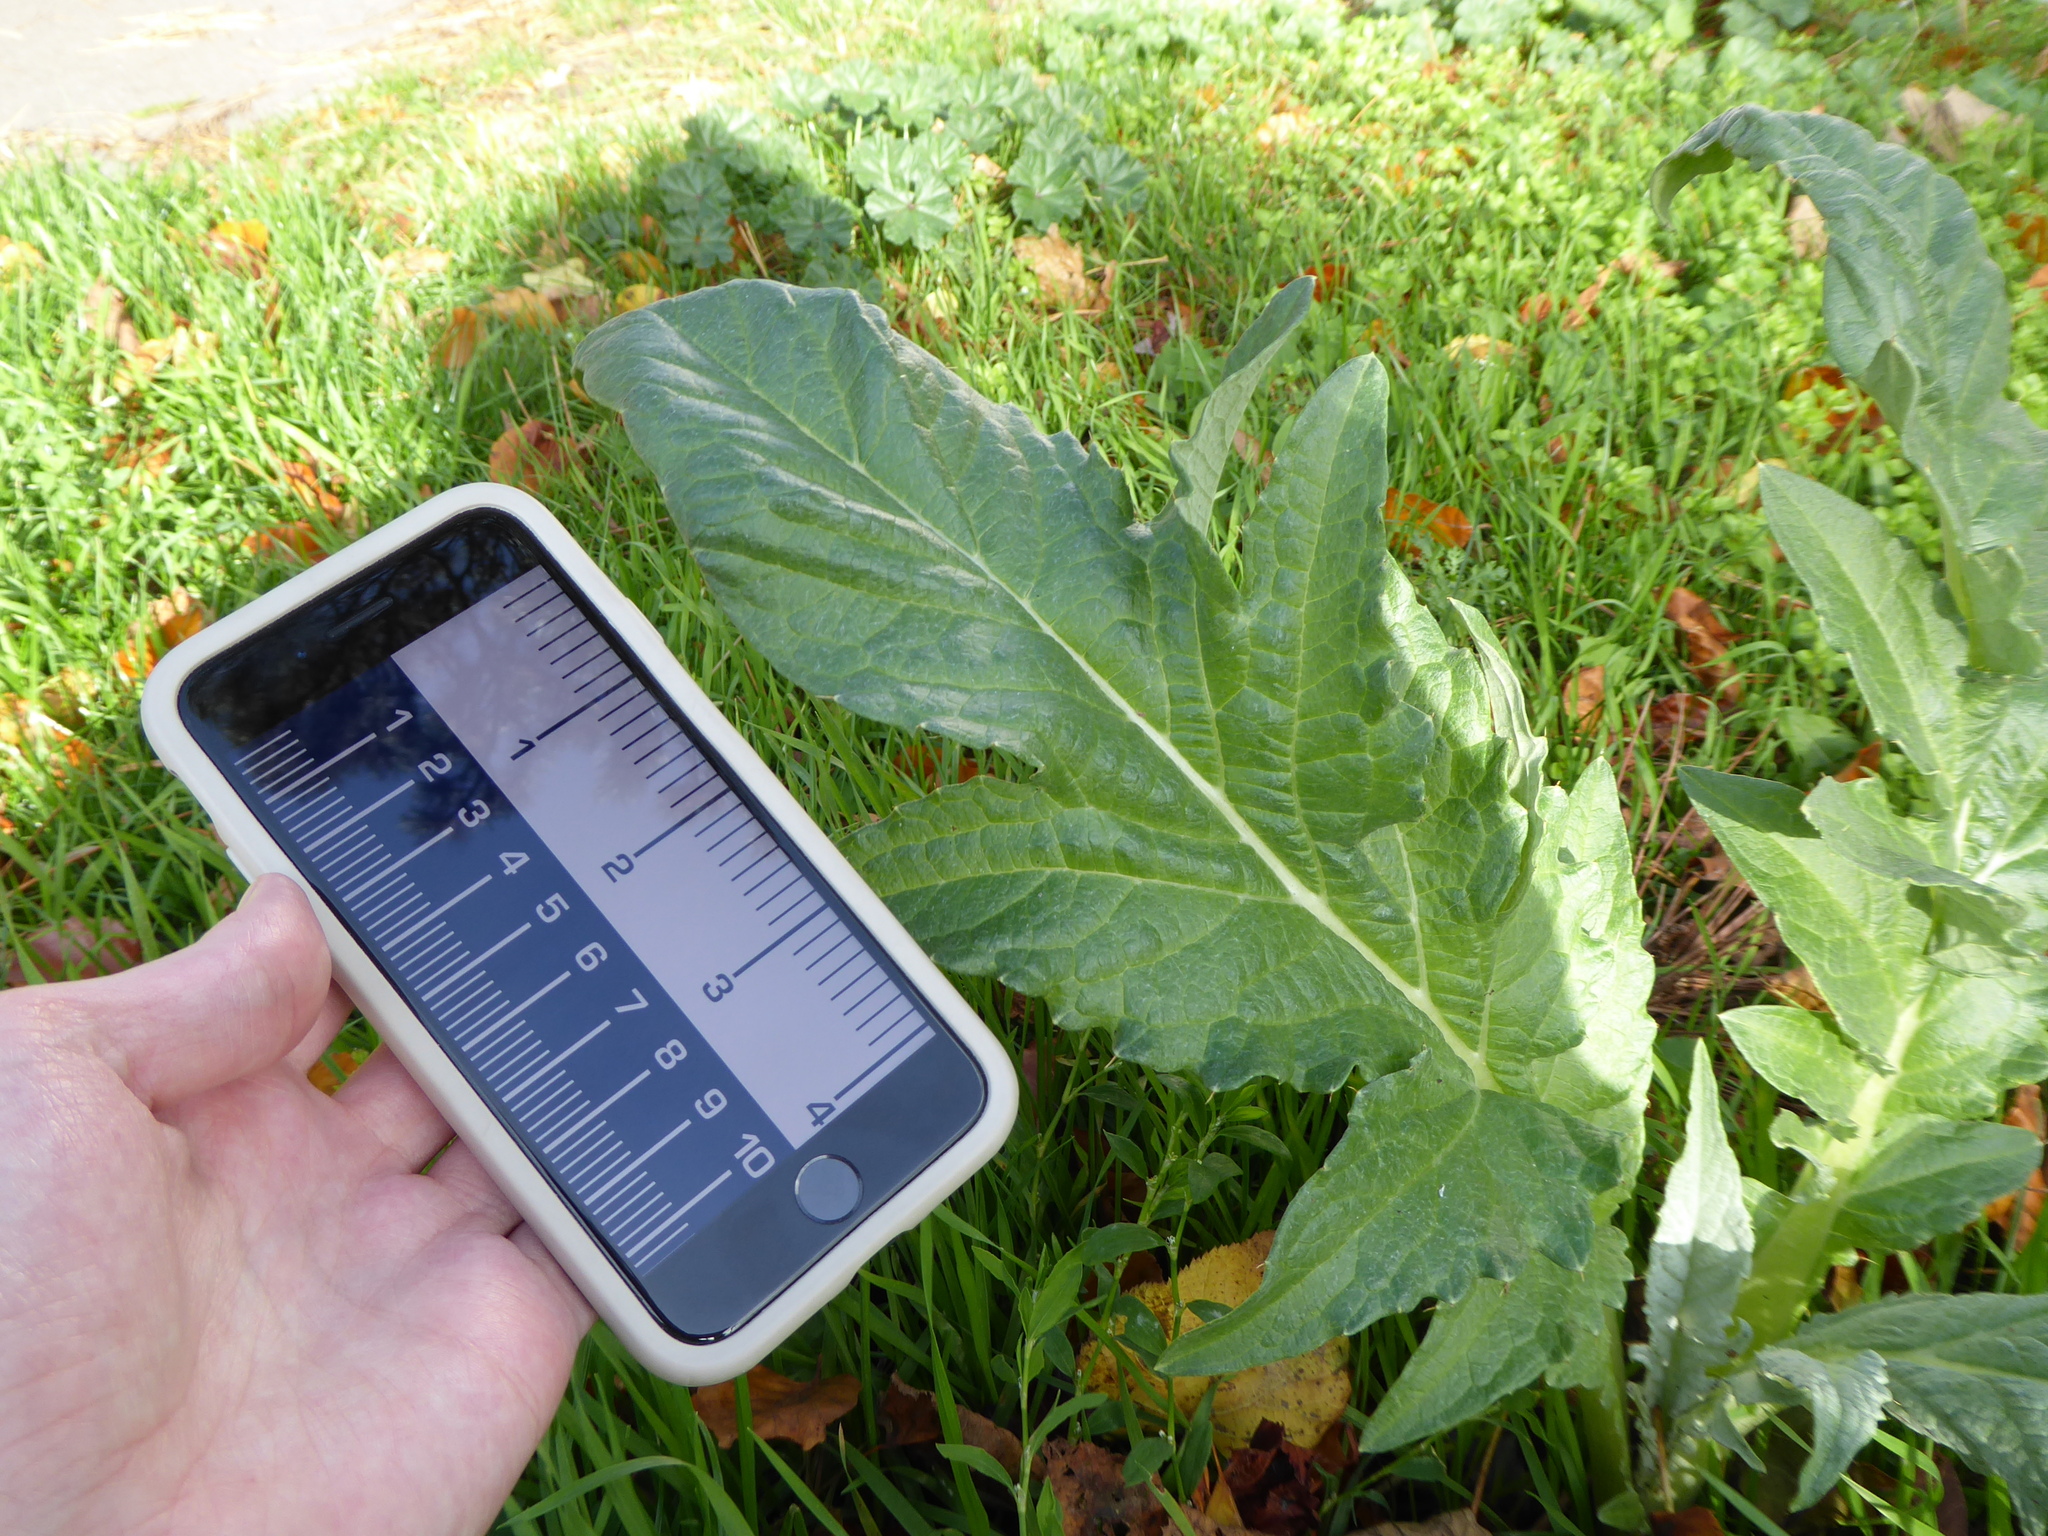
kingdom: Plantae
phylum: Tracheophyta
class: Magnoliopsida
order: Asterales
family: Asteraceae
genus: Cynara
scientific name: Cynara cardunculus
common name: Globe artichoke
